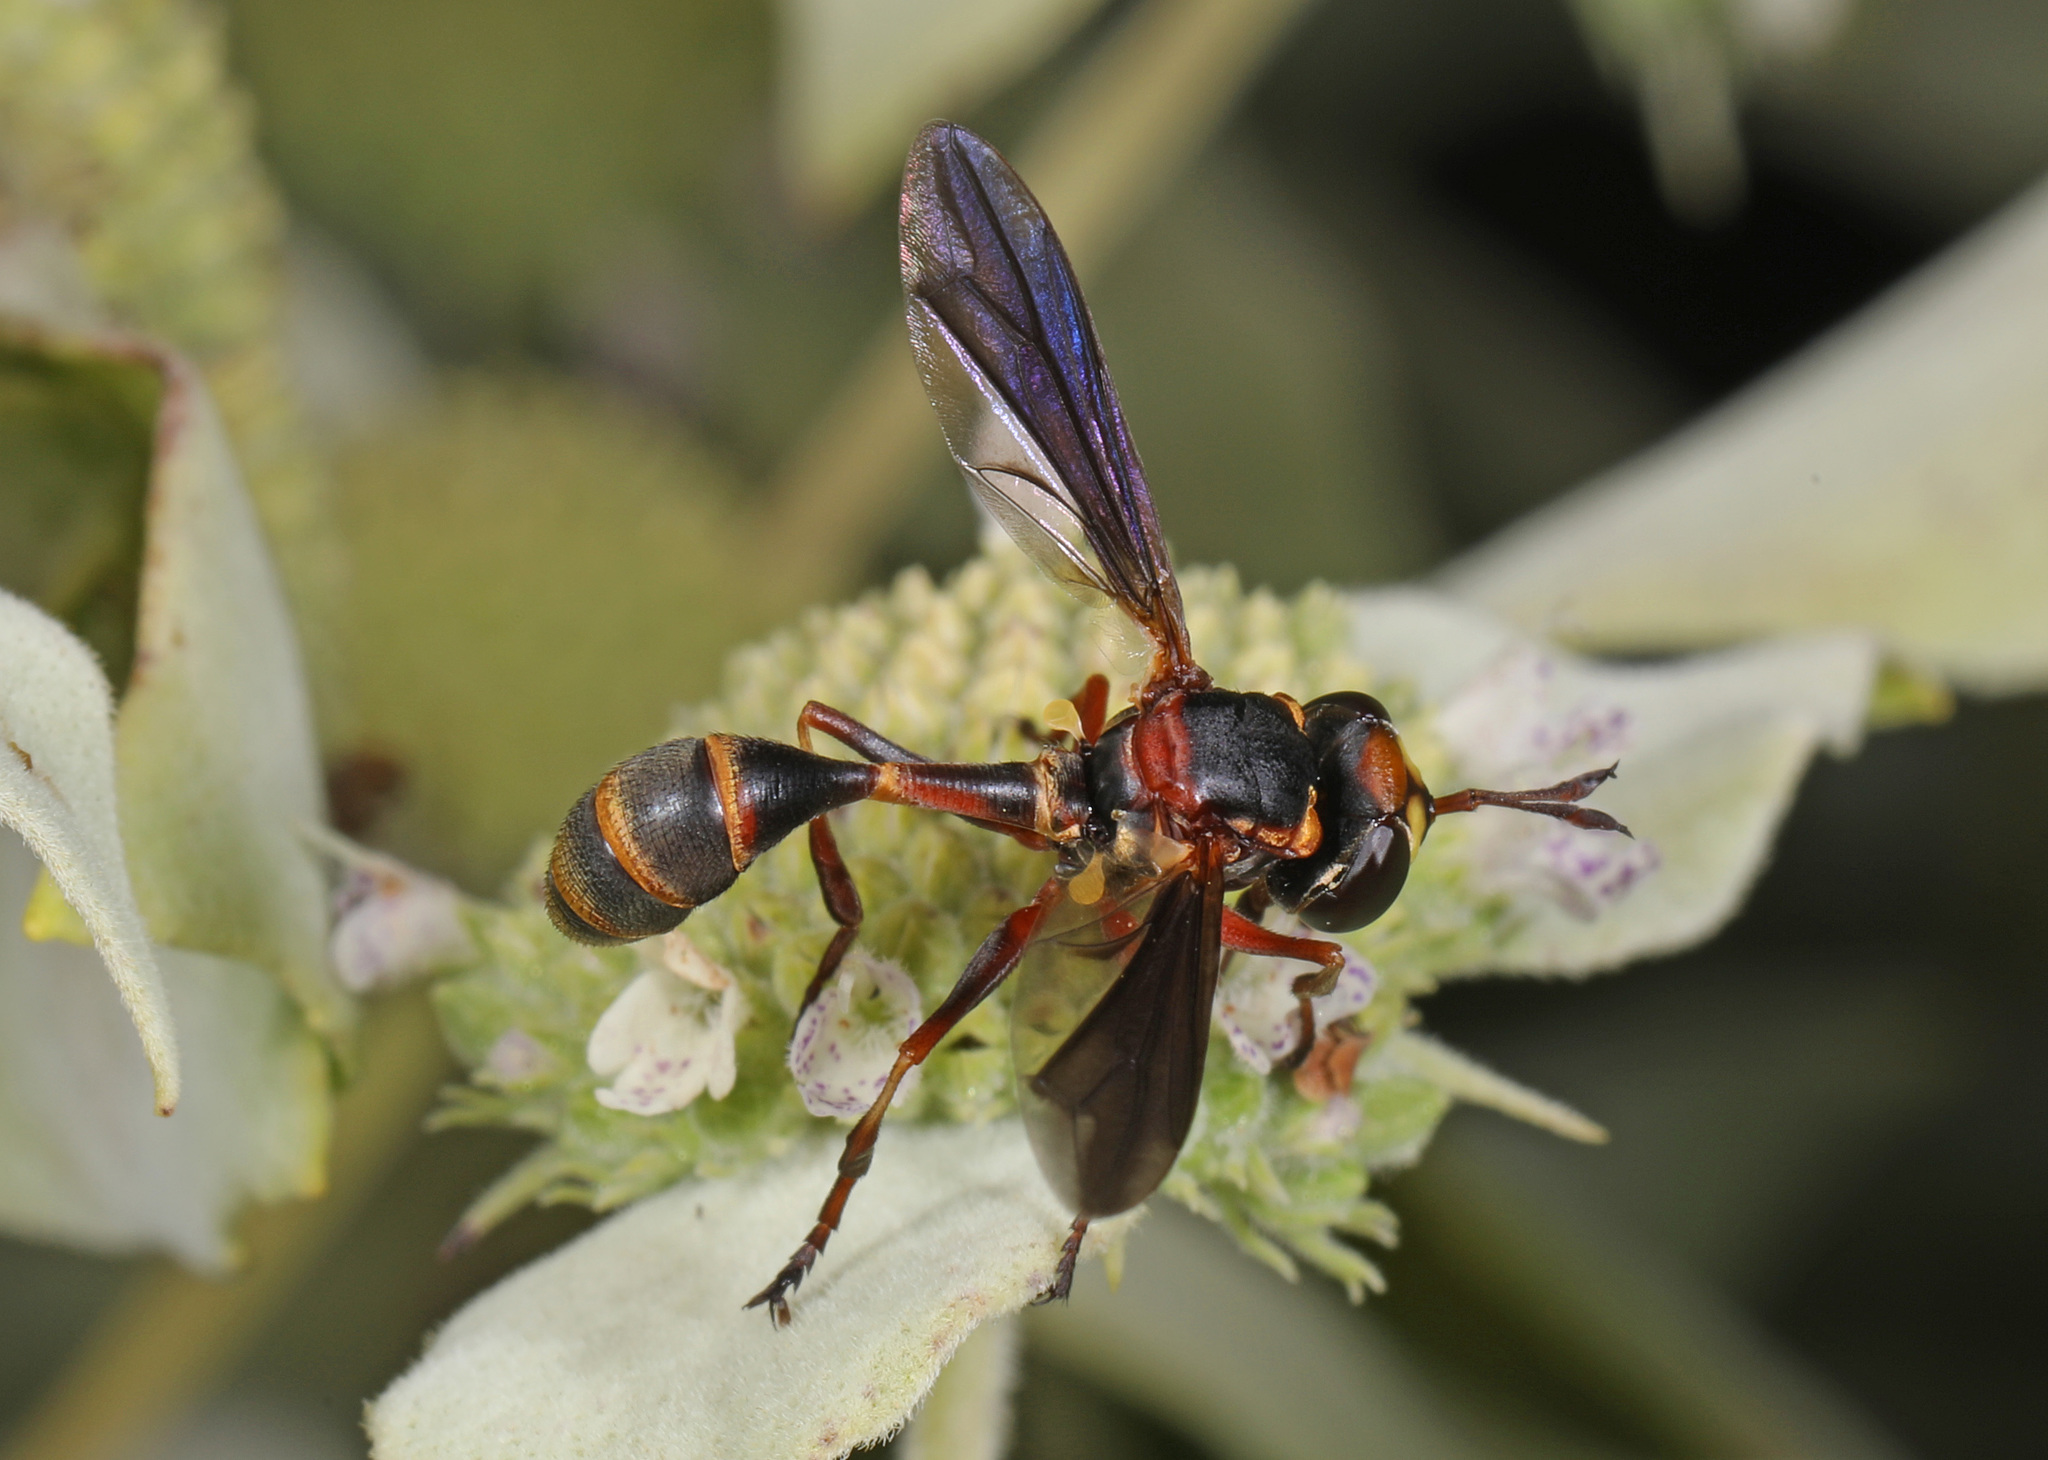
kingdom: Animalia
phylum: Arthropoda
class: Insecta
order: Diptera
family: Conopidae
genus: Physocephala
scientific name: Physocephala sagittaria
